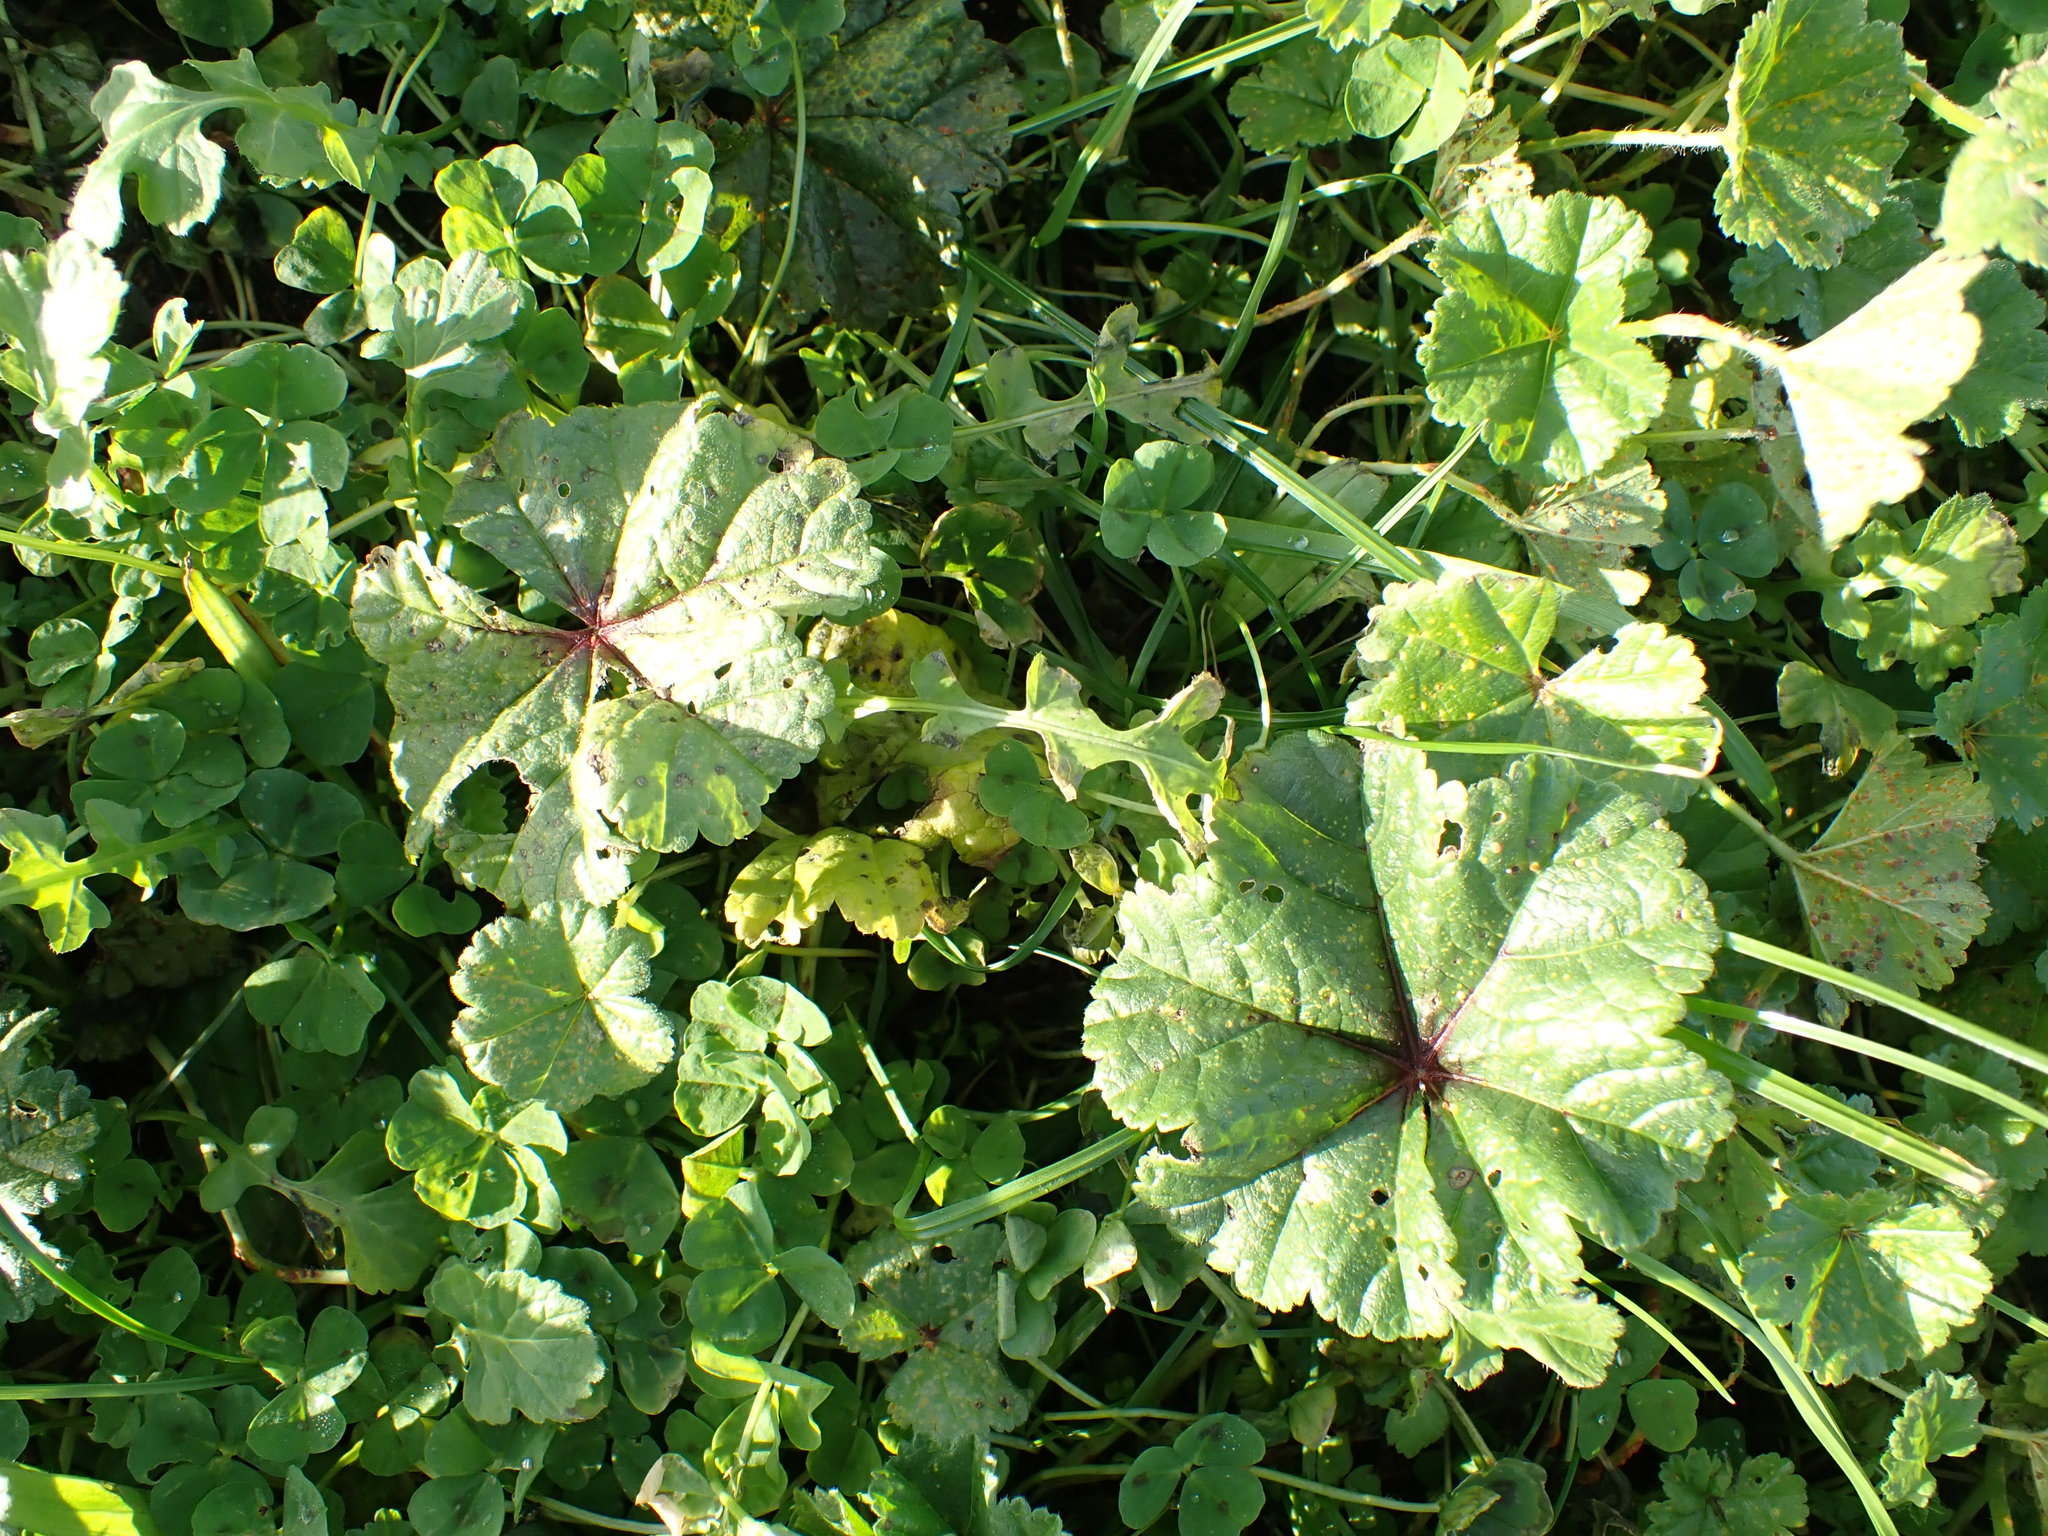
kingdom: Plantae
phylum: Tracheophyta
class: Magnoliopsida
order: Malvales
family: Malvaceae
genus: Malva
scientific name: Malva sylvestris
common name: Common mallow
